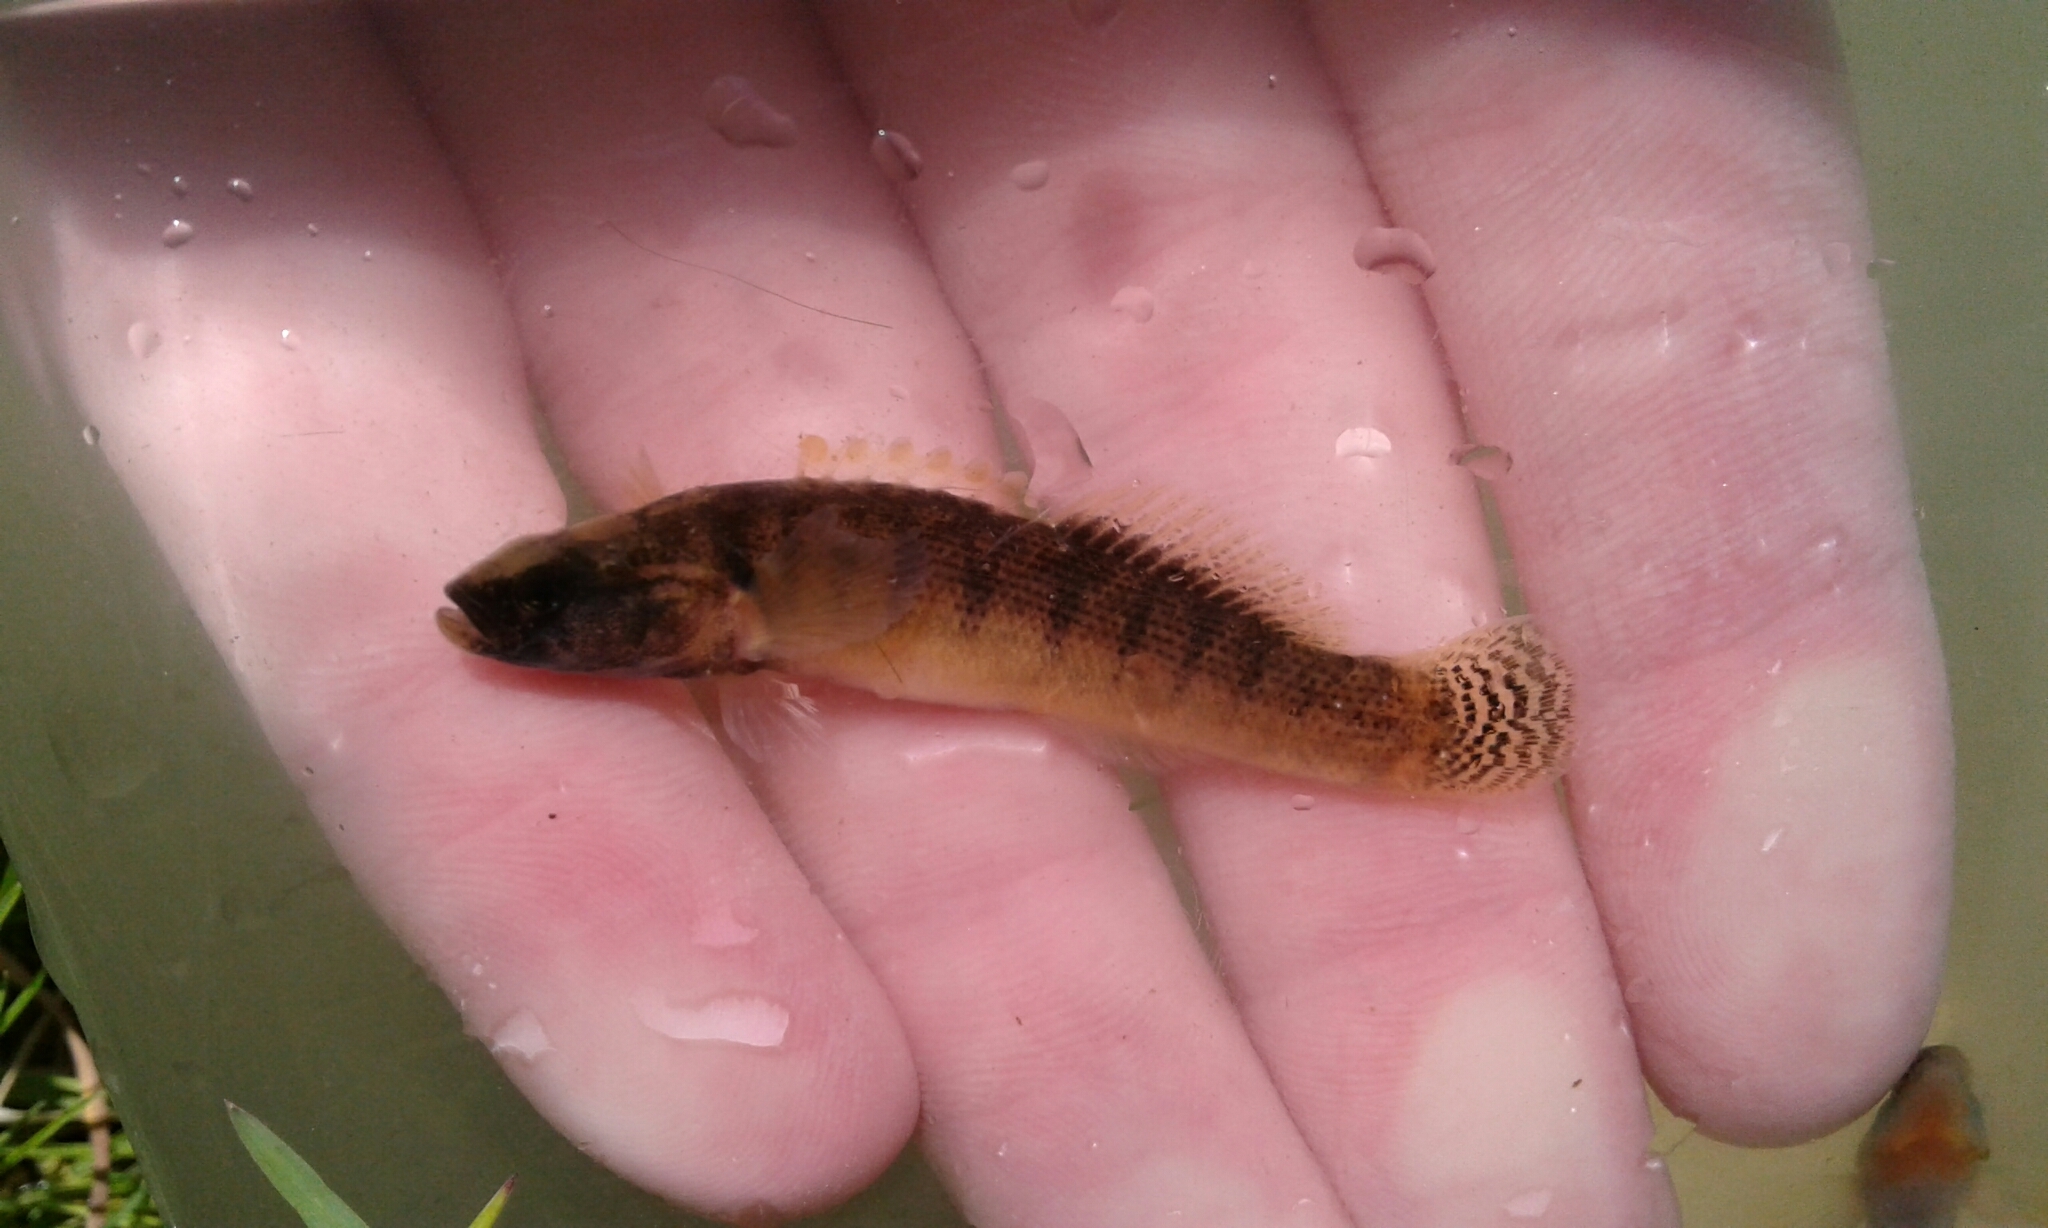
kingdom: Animalia
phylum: Chordata
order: Perciformes
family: Percidae
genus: Etheostoma
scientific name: Etheostoma flabellare
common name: Fantail darter
